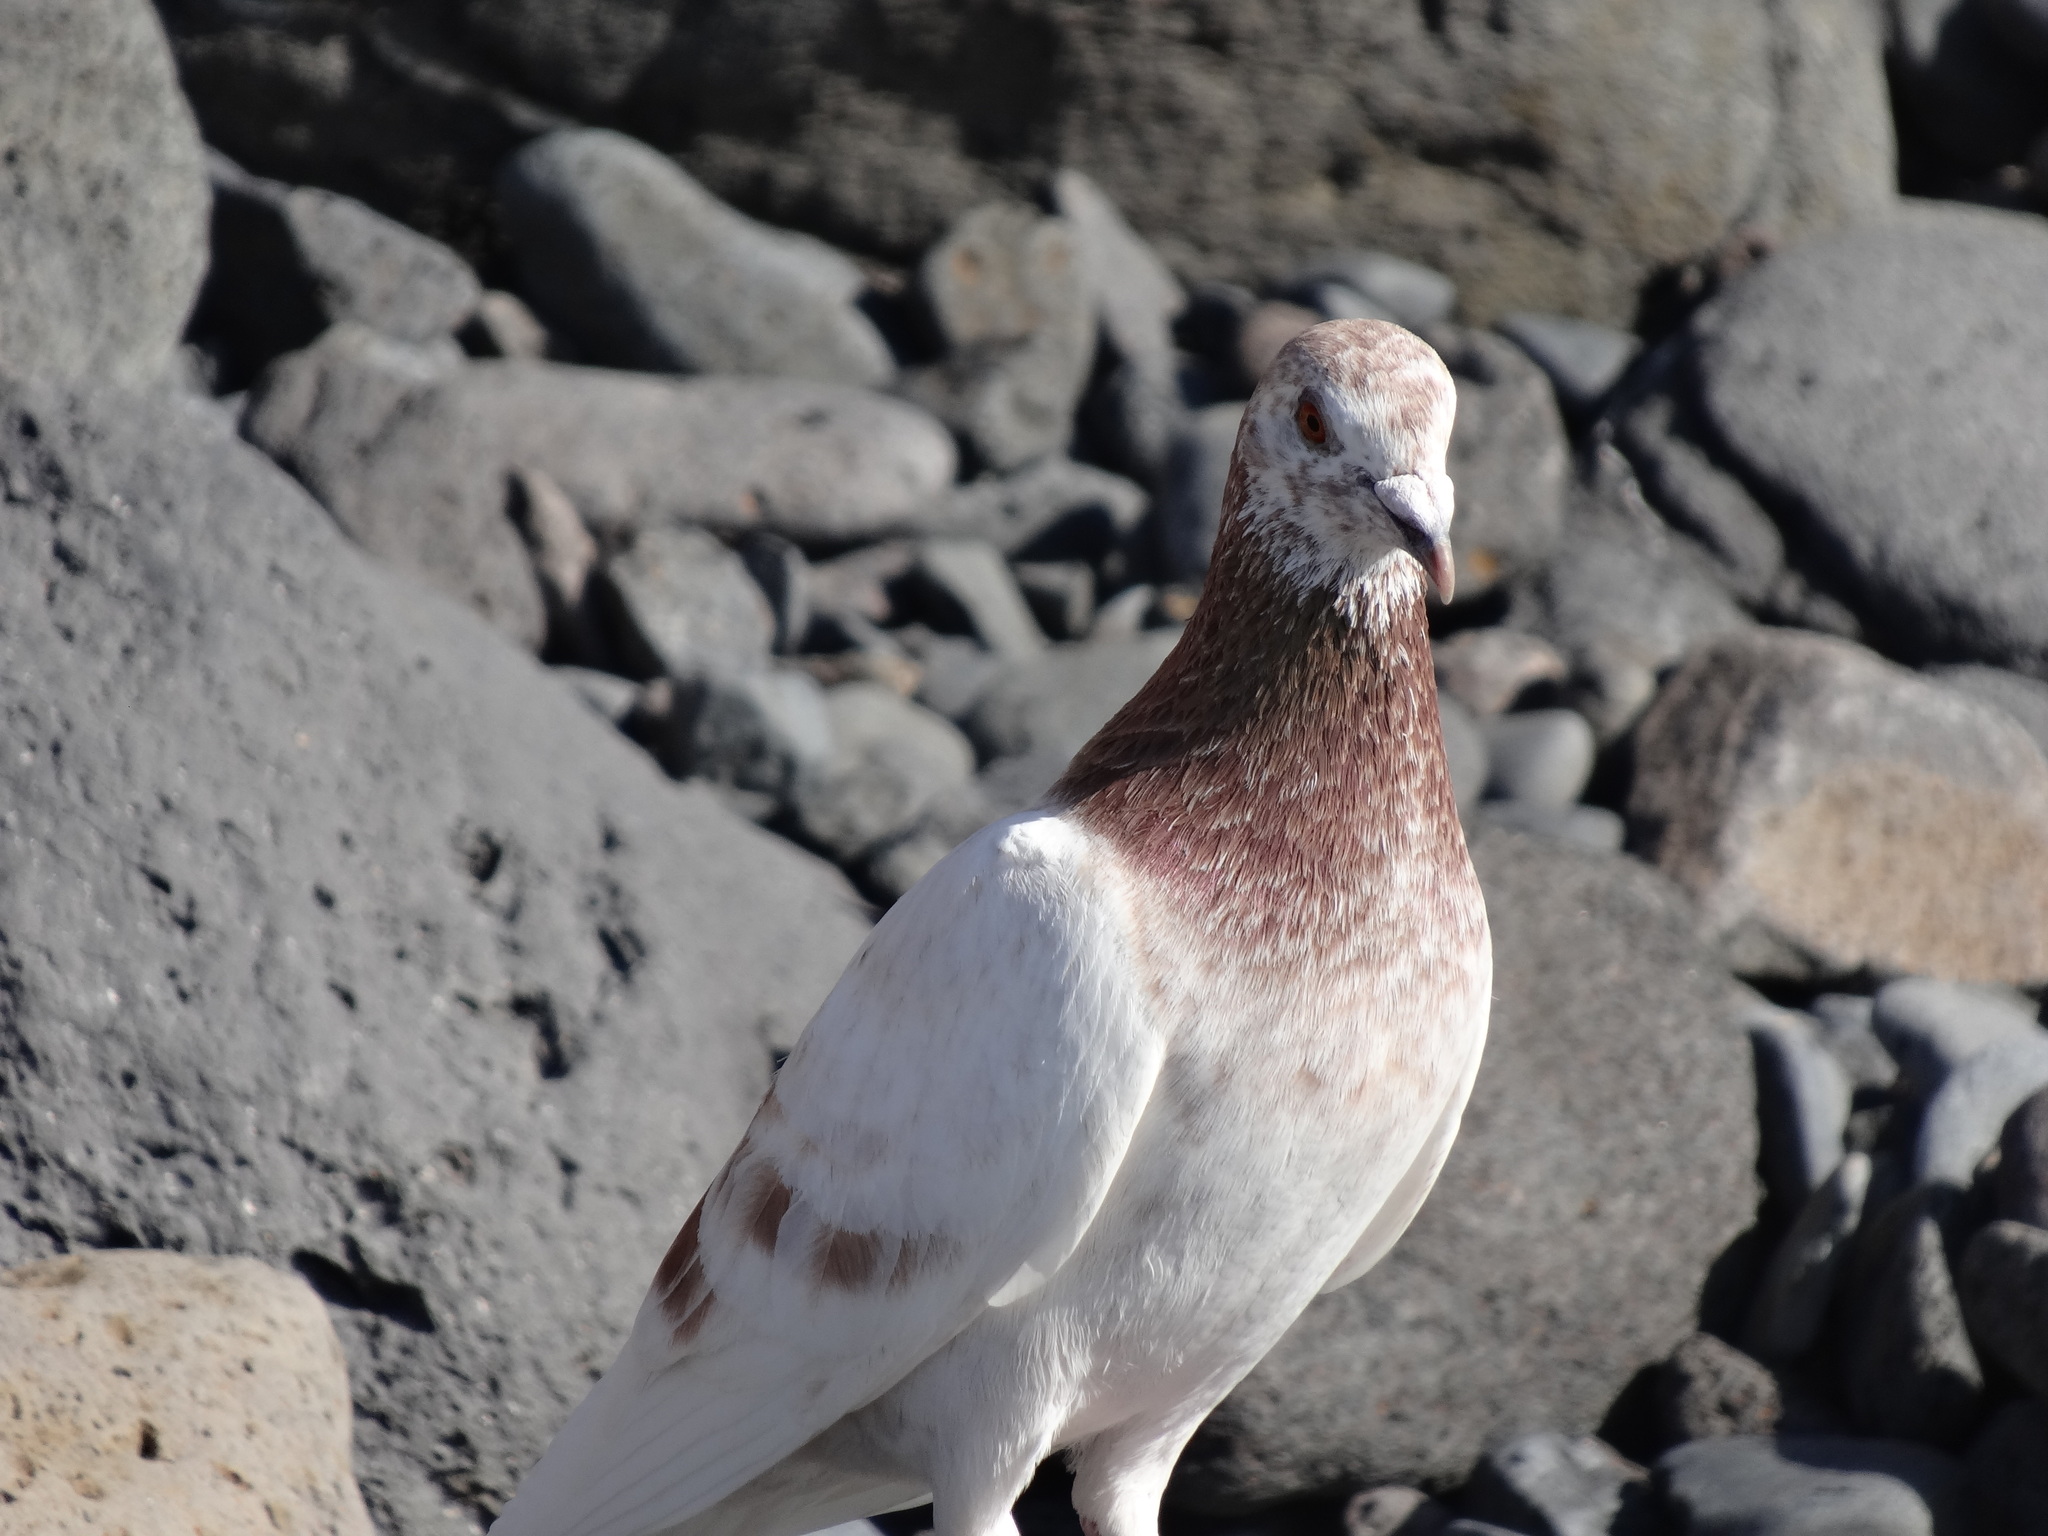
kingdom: Animalia
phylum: Chordata
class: Aves
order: Columbiformes
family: Columbidae
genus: Columba
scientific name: Columba livia
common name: Rock pigeon
